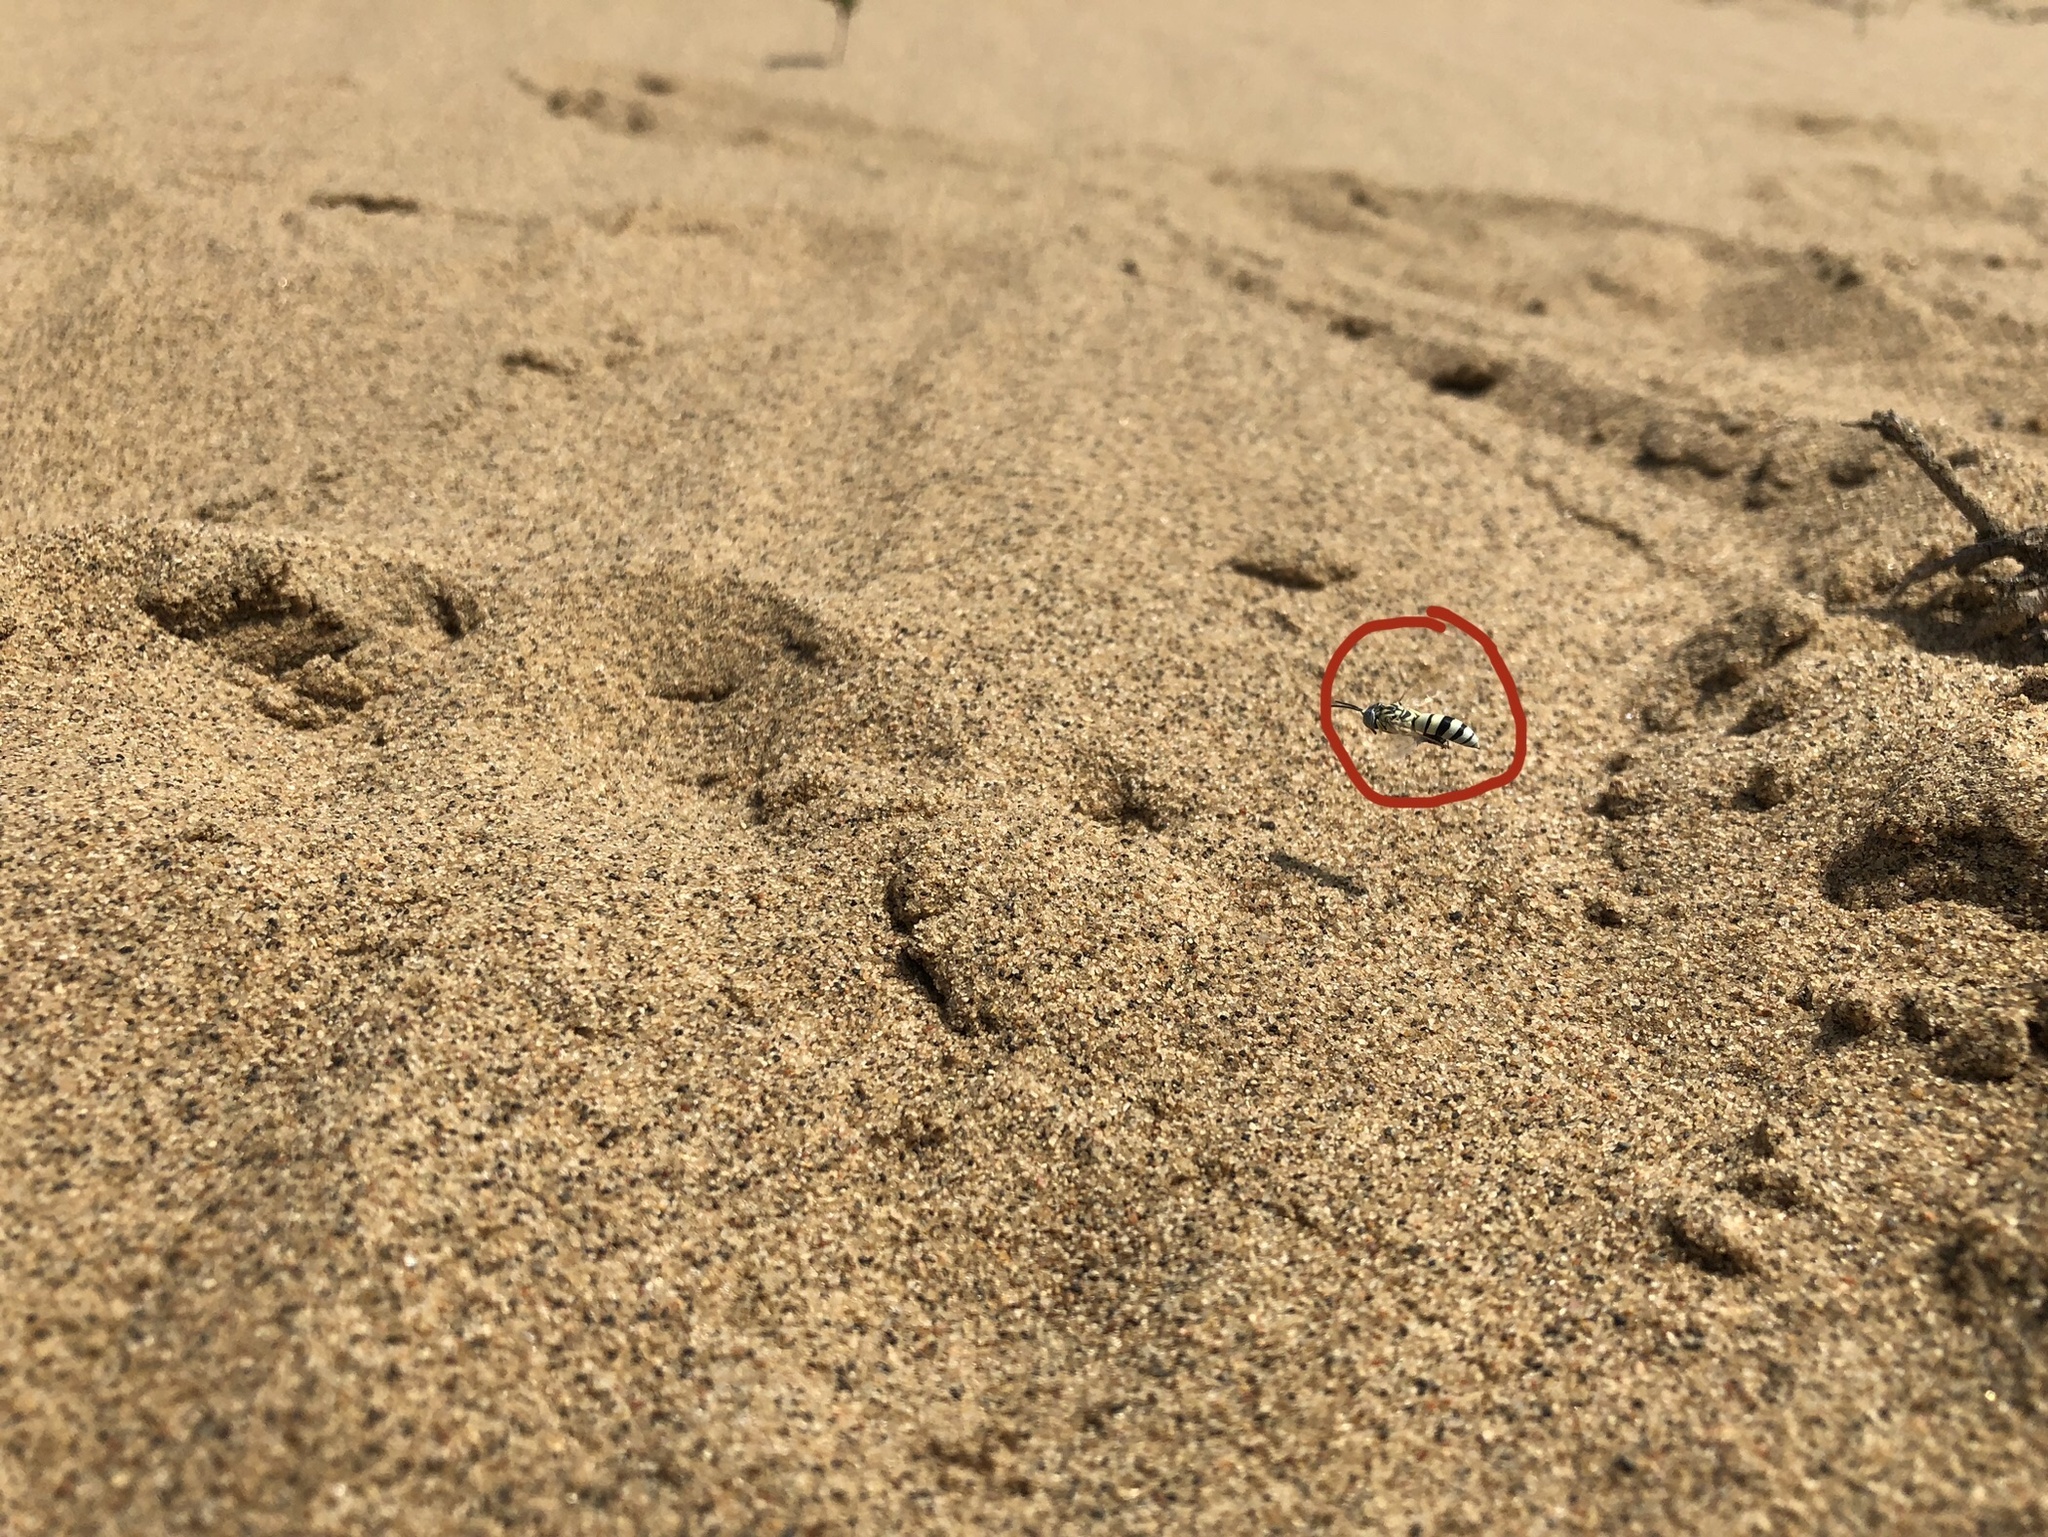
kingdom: Animalia
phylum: Arthropoda
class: Insecta
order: Hymenoptera
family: Crabronidae
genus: Microbembex
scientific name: Microbembex monodonta
